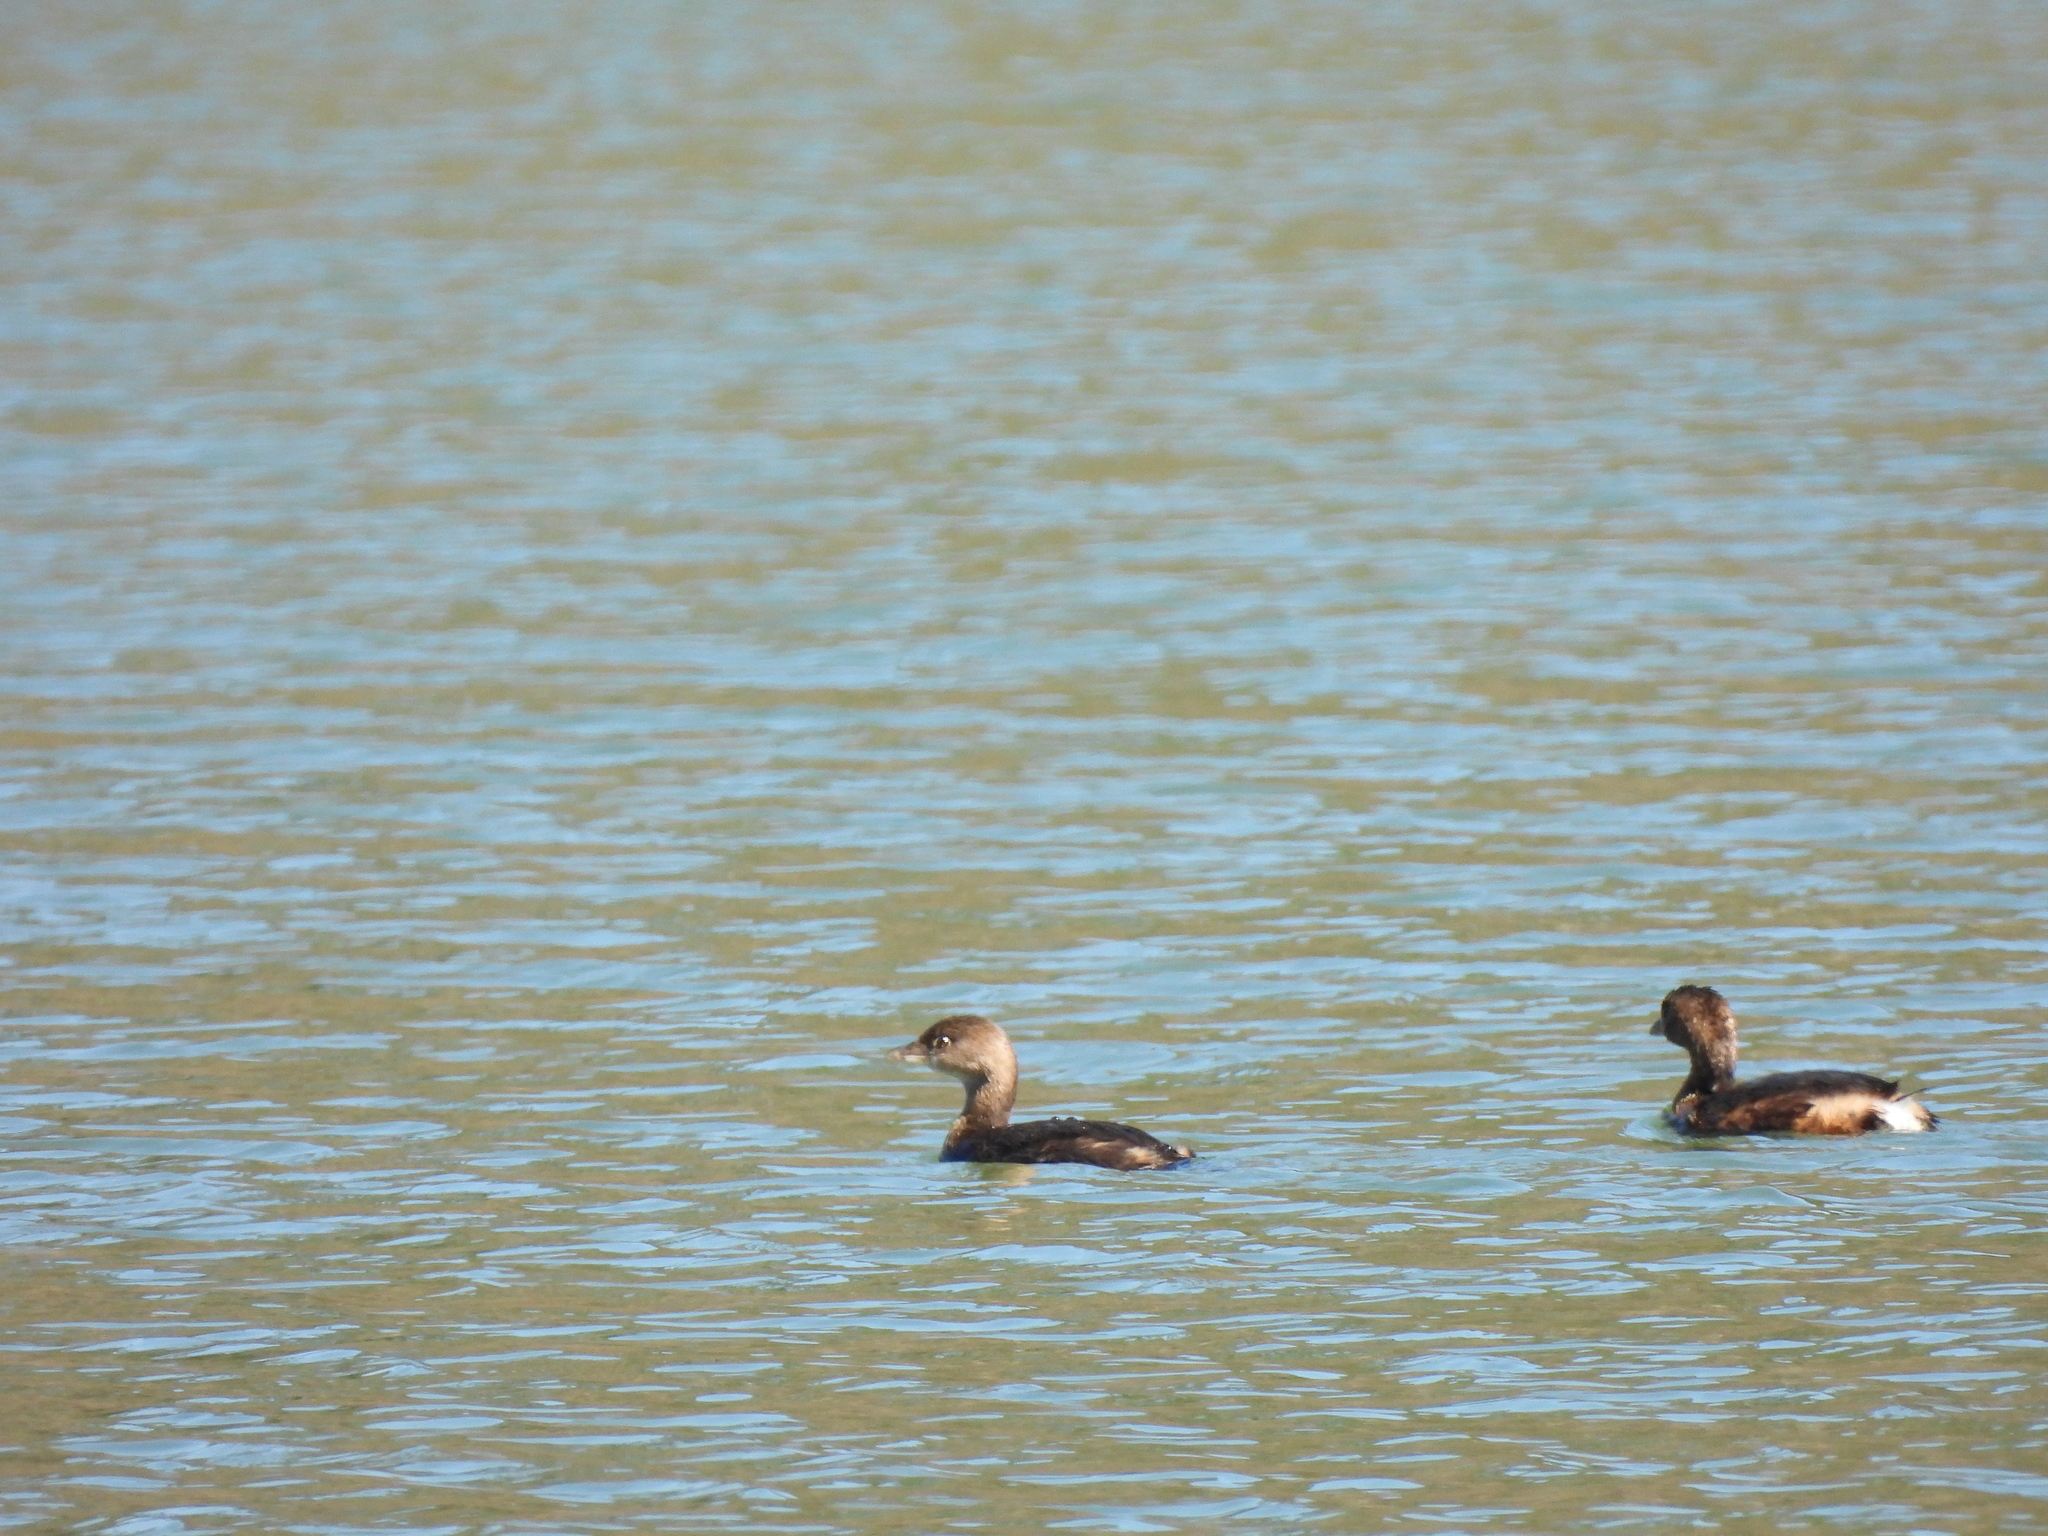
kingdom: Animalia
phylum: Chordata
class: Aves
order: Podicipediformes
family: Podicipedidae
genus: Podilymbus
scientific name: Podilymbus podiceps
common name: Pied-billed grebe
